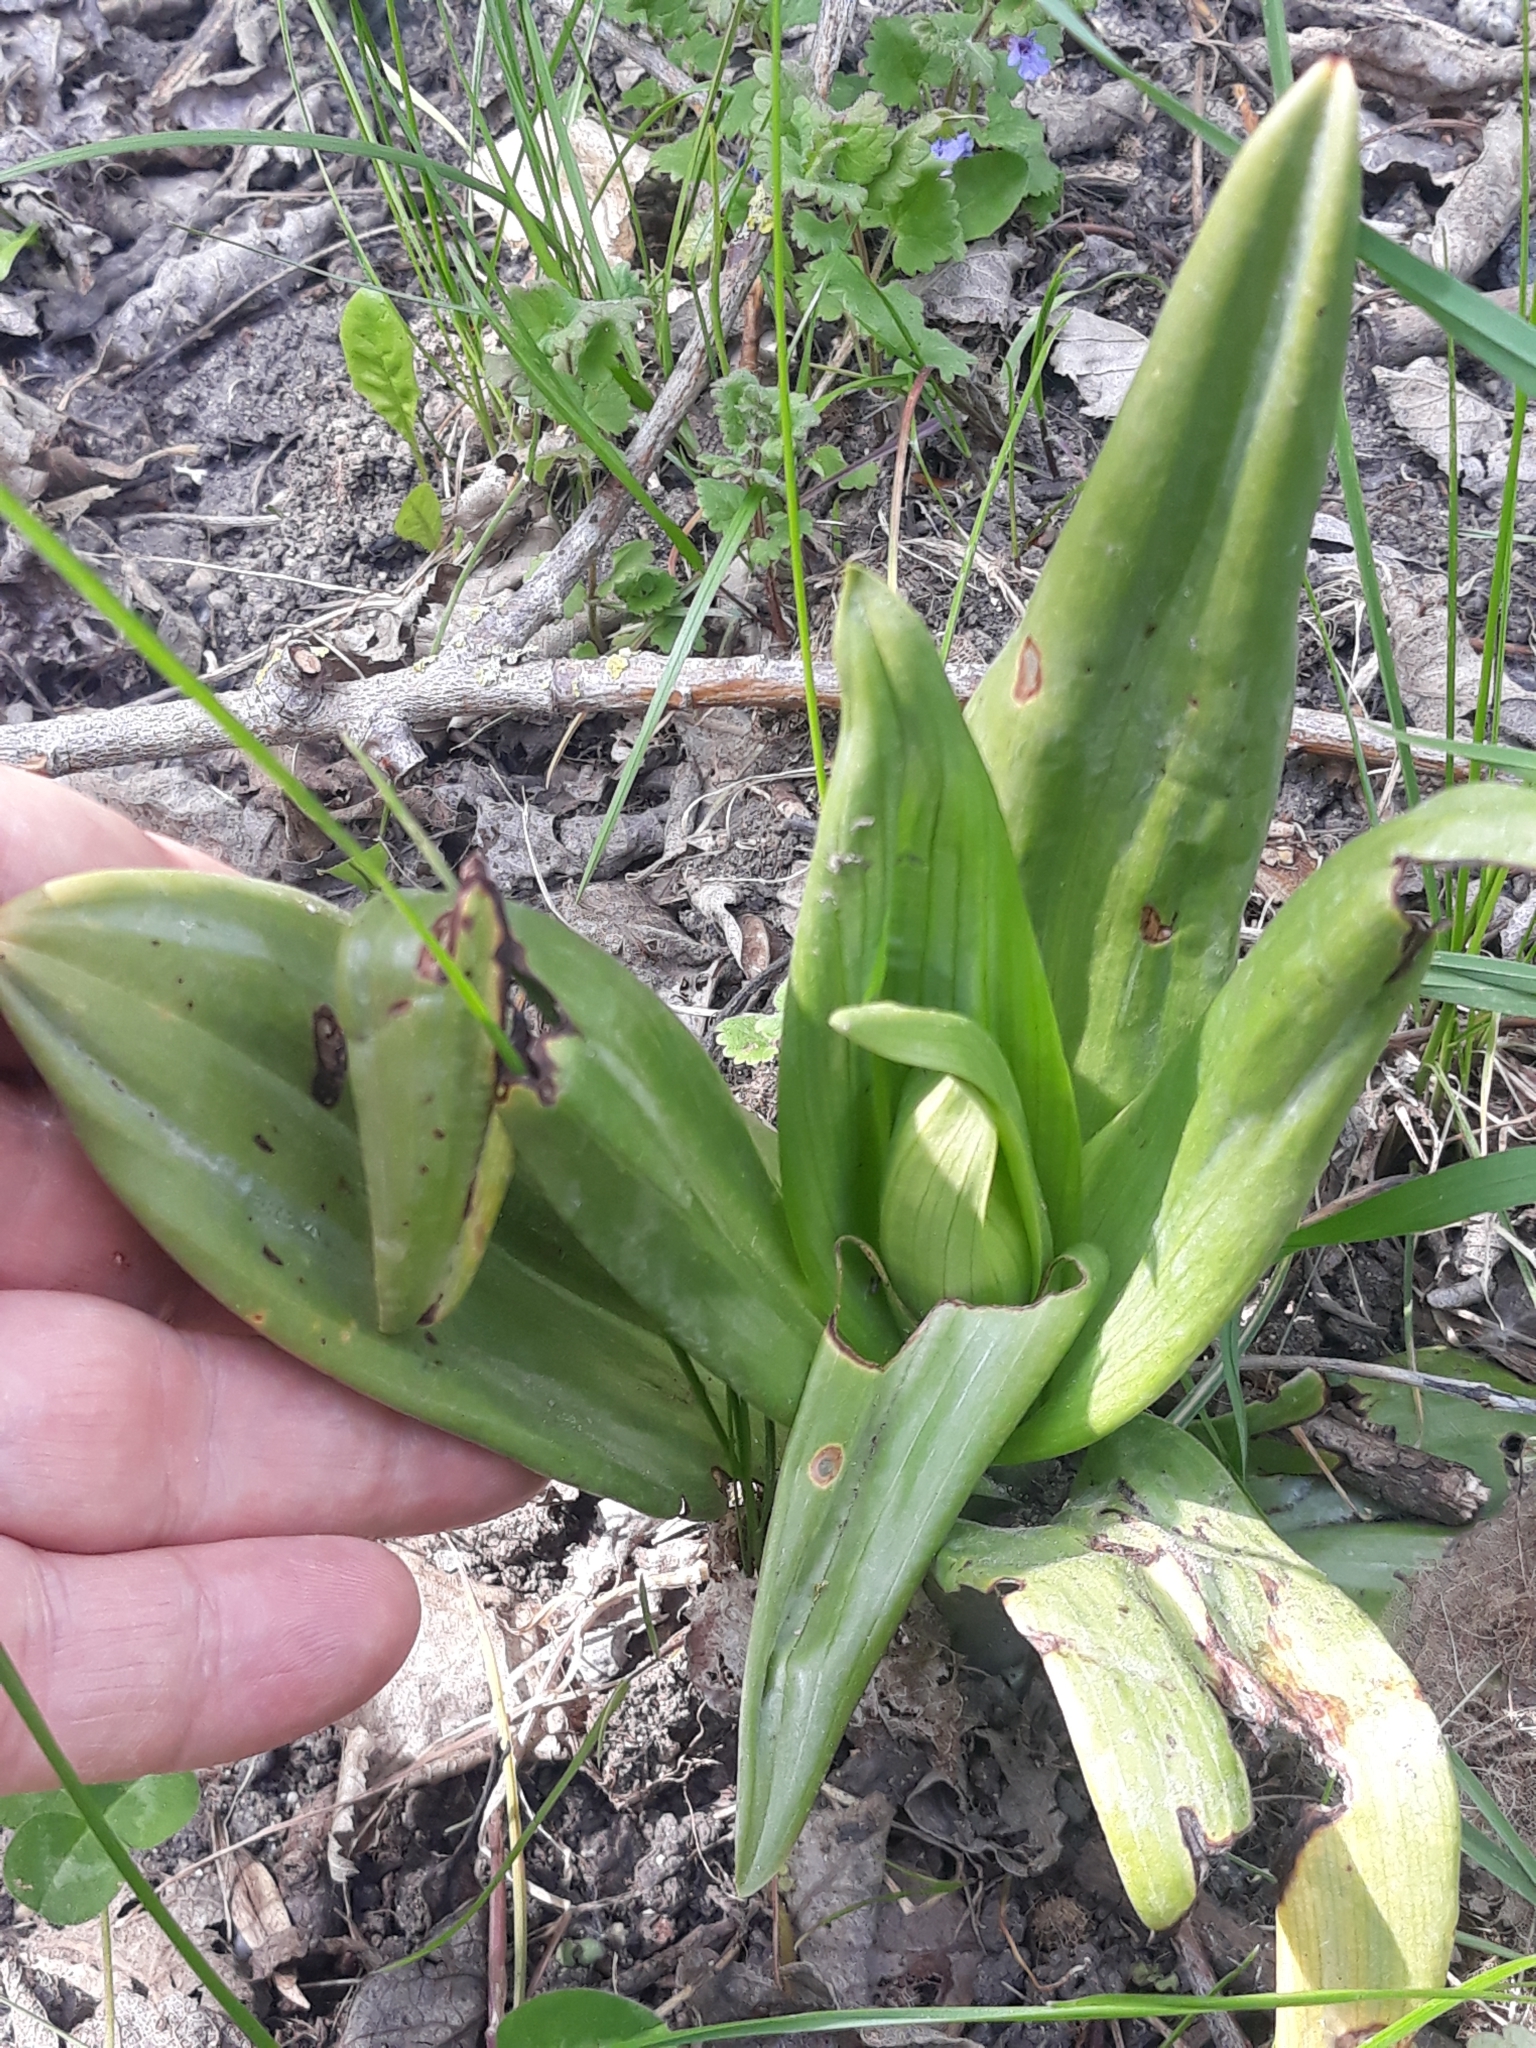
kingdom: Plantae
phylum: Tracheophyta
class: Liliopsida
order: Asparagales
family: Orchidaceae
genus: Himantoglossum
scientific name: Himantoglossum hircinum
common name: Lizard orchid
